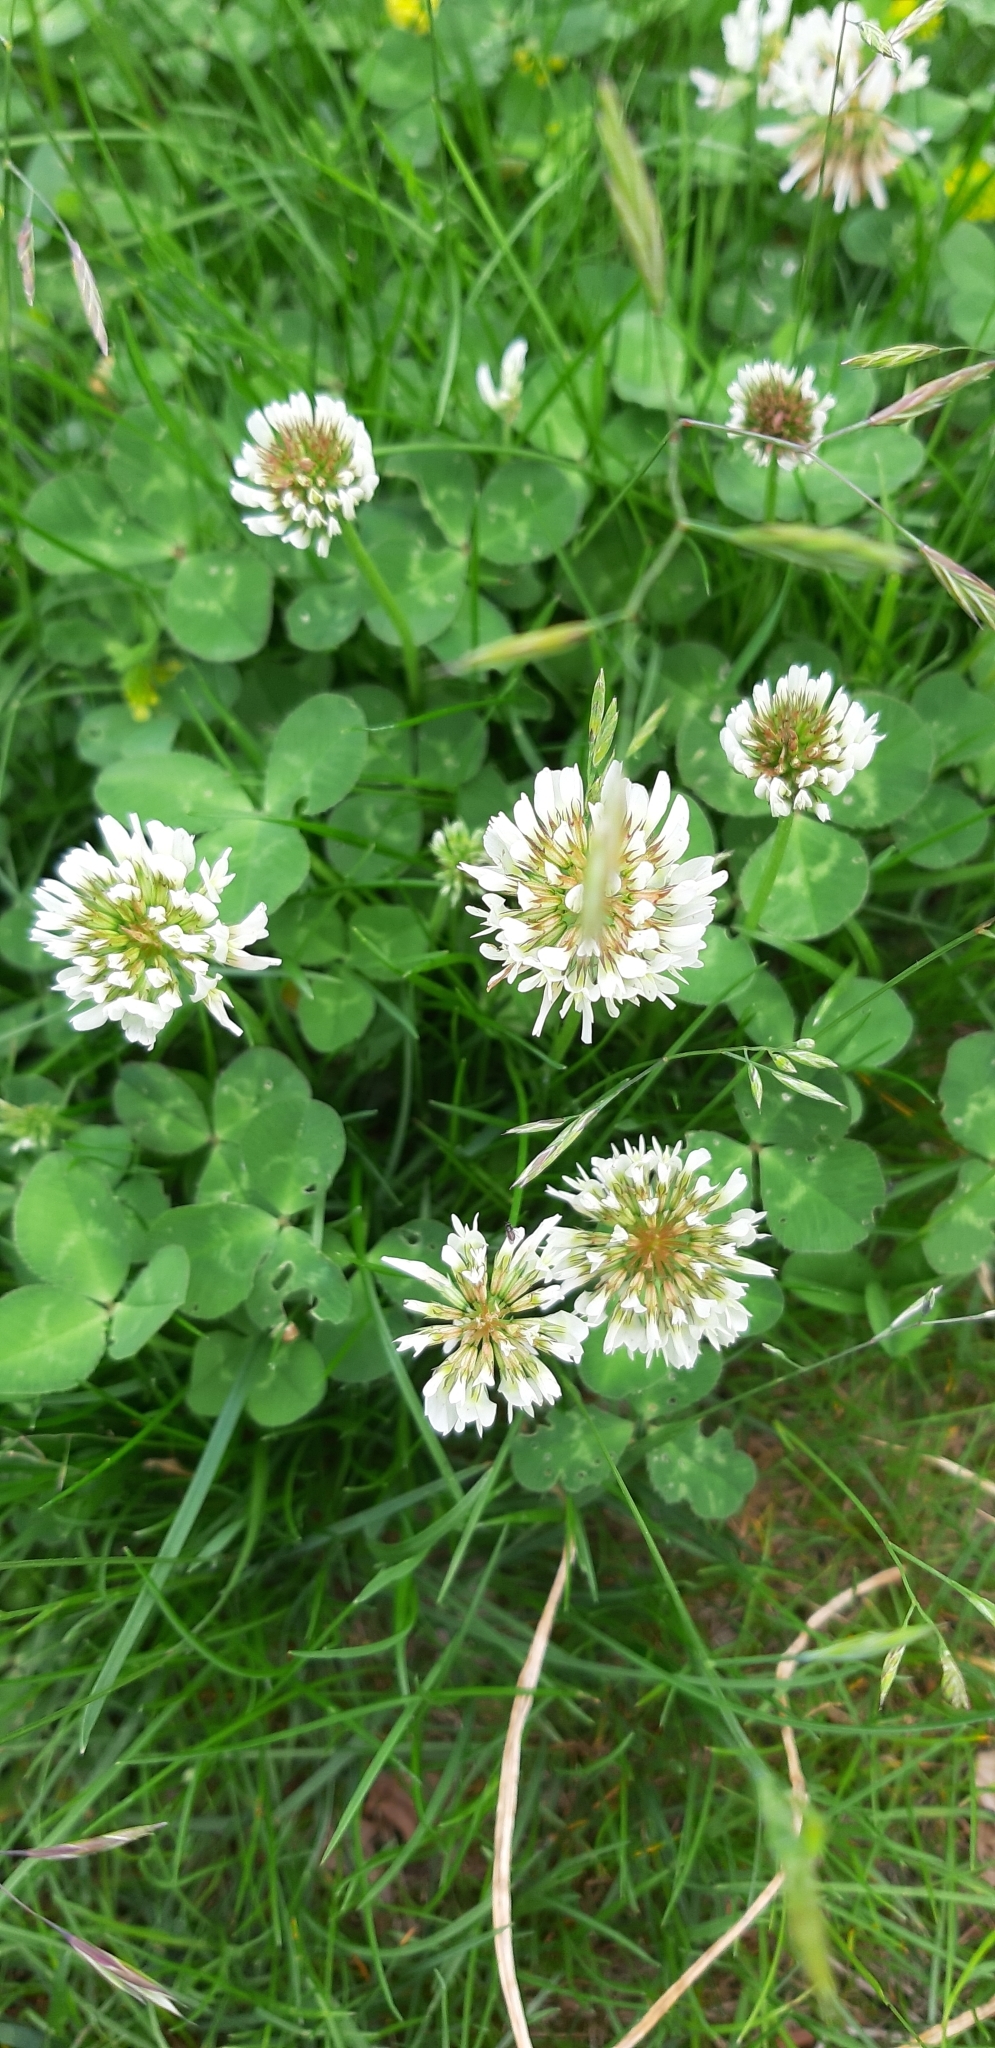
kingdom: Plantae
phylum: Tracheophyta
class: Magnoliopsida
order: Fabales
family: Fabaceae
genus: Trifolium
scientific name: Trifolium repens
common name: White clover
